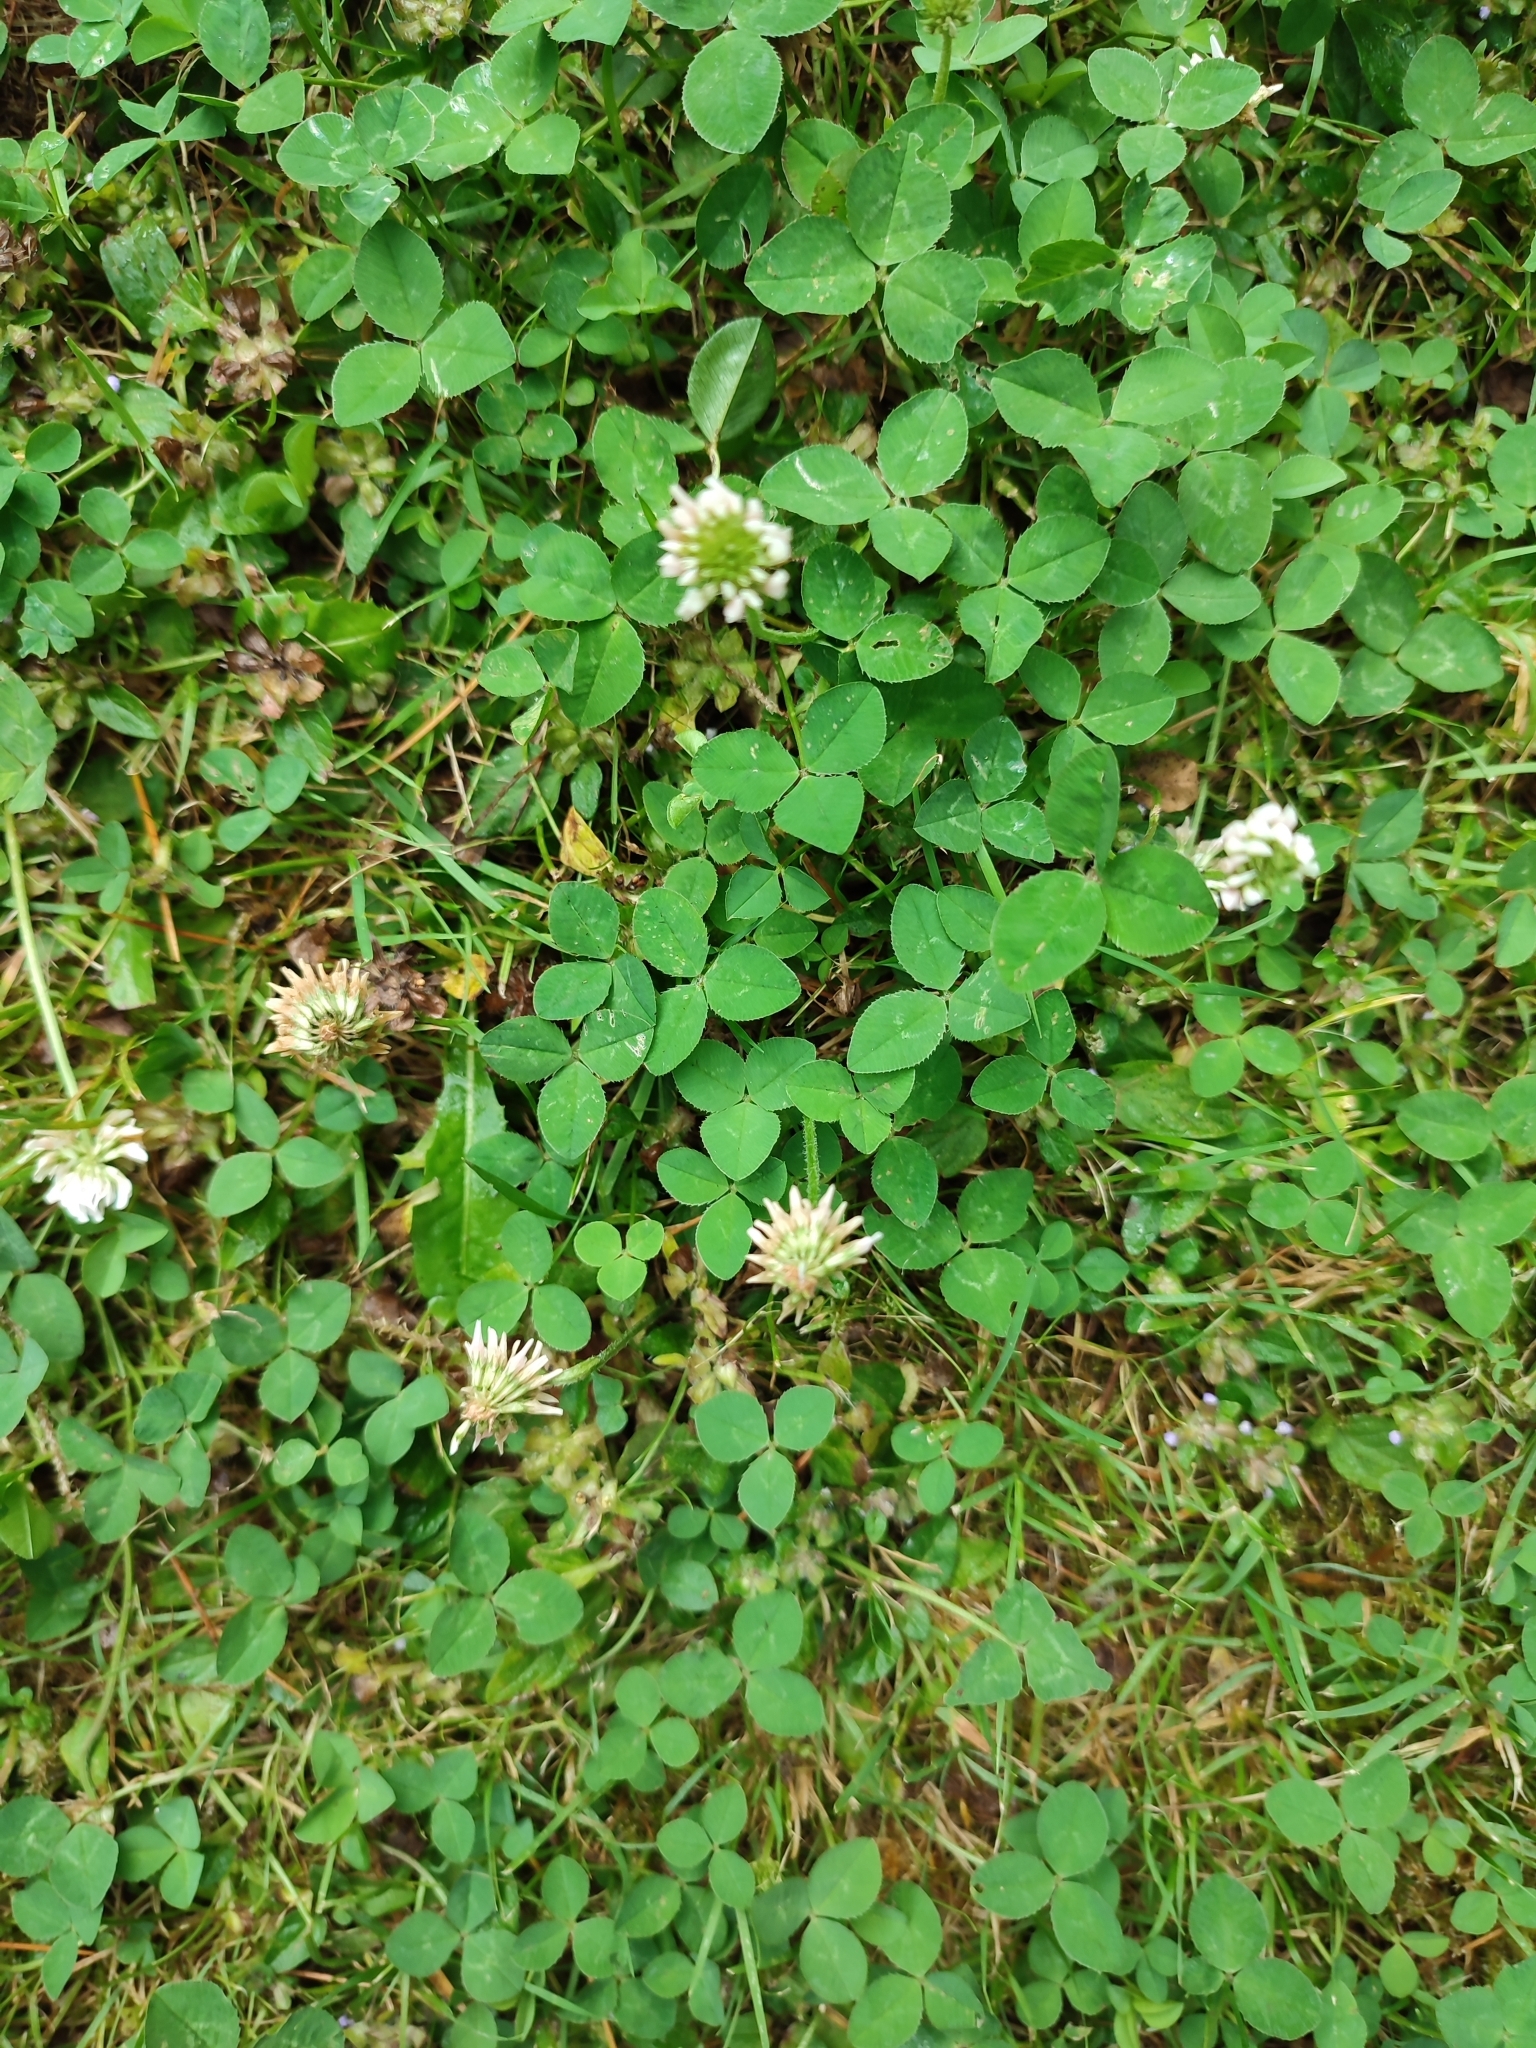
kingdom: Plantae
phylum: Tracheophyta
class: Magnoliopsida
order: Fabales
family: Fabaceae
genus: Trifolium
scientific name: Trifolium repens
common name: White clover
